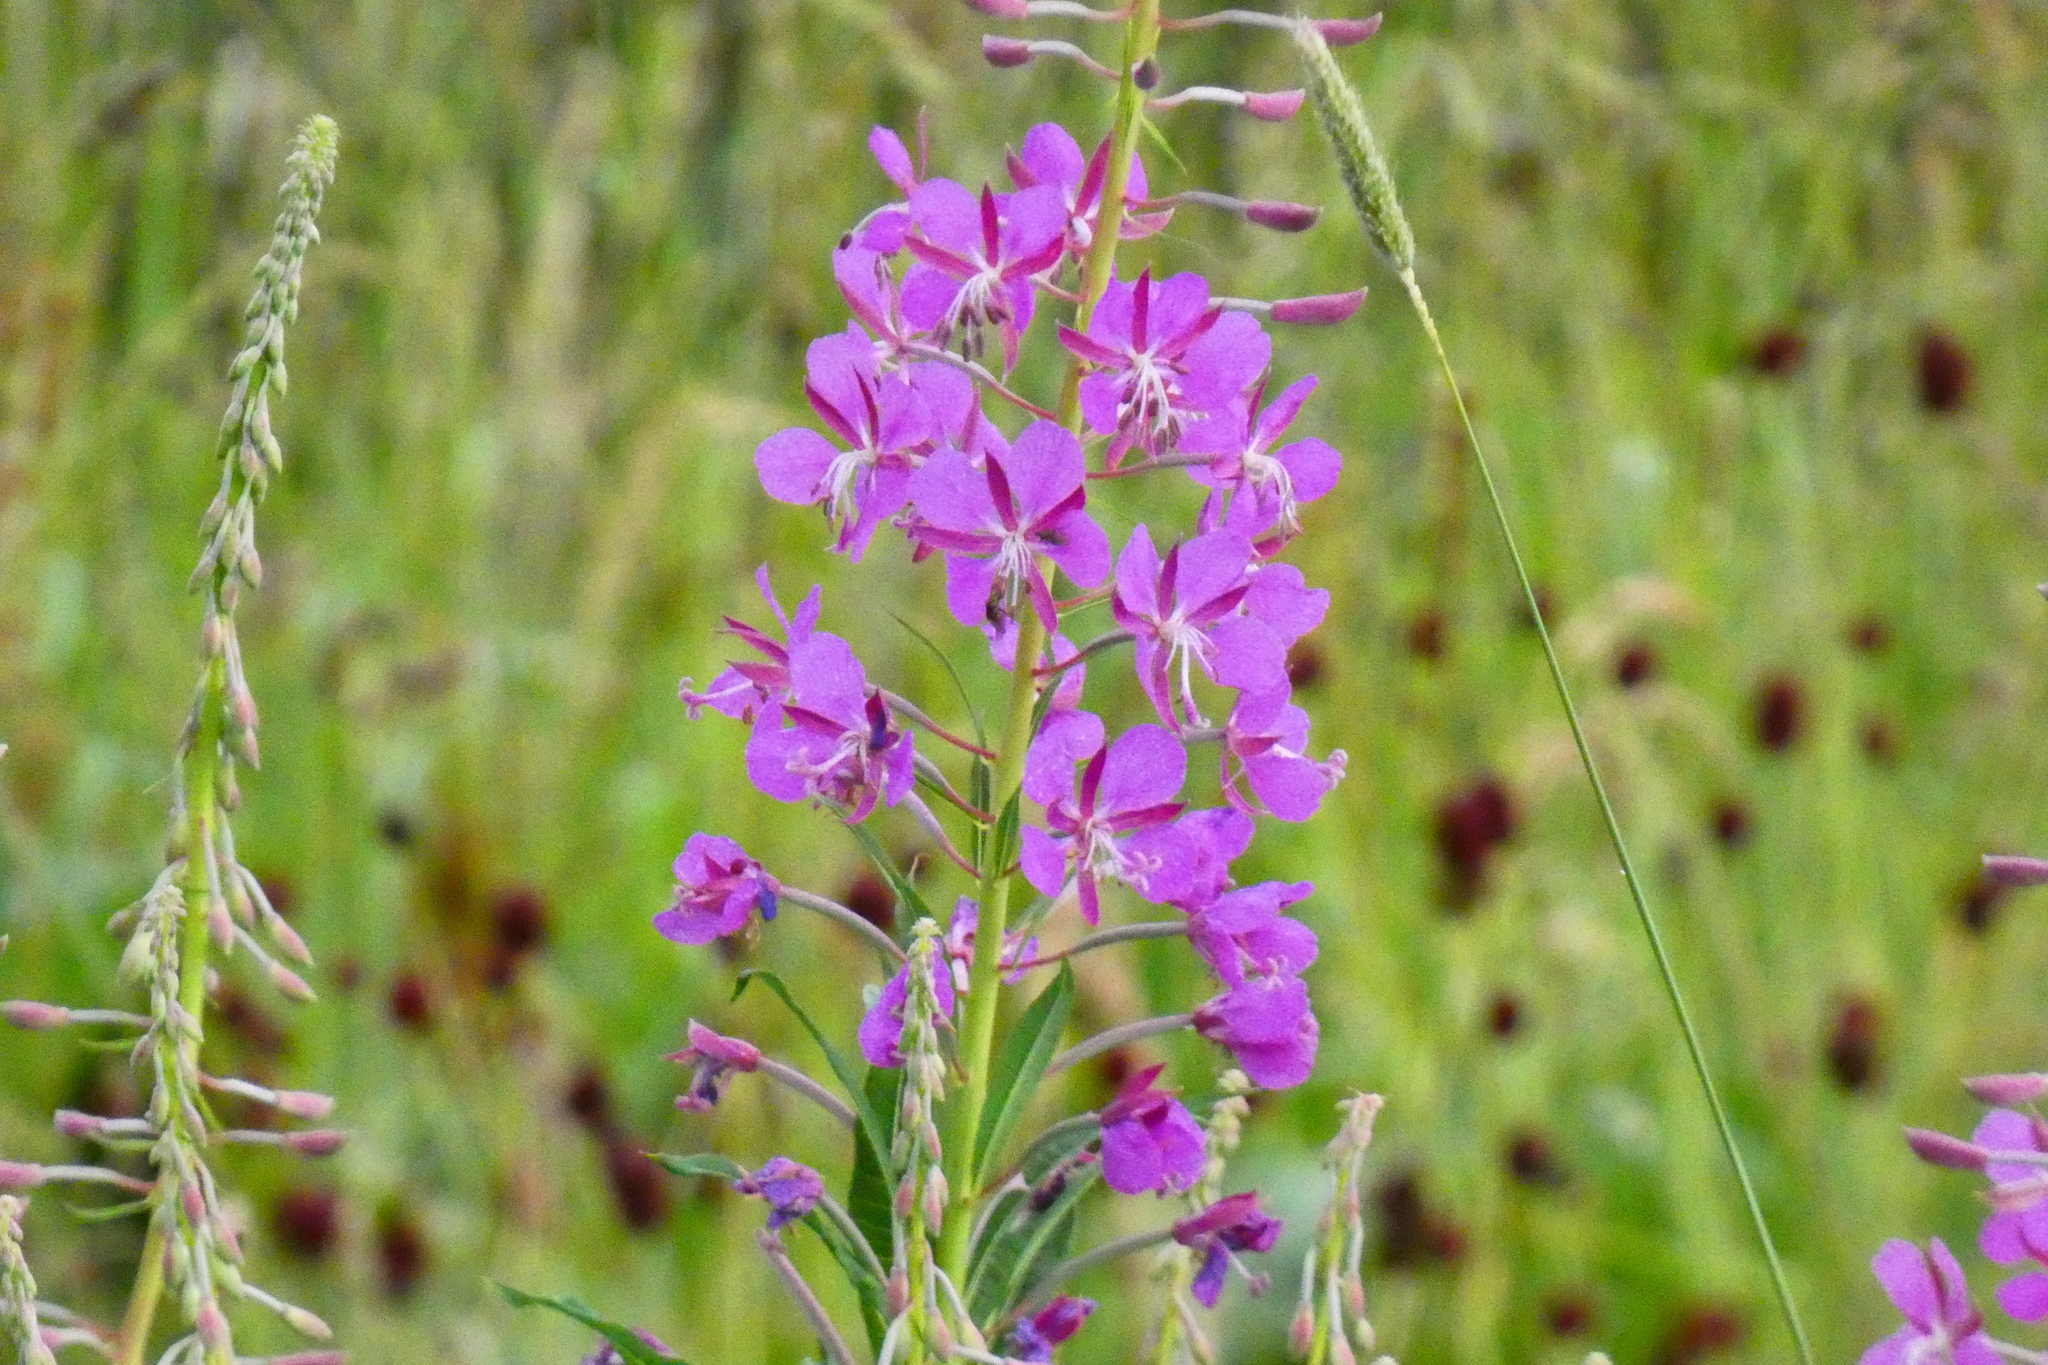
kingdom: Plantae
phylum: Tracheophyta
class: Magnoliopsida
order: Myrtales
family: Onagraceae
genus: Chamaenerion
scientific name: Chamaenerion angustifolium
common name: Fireweed
